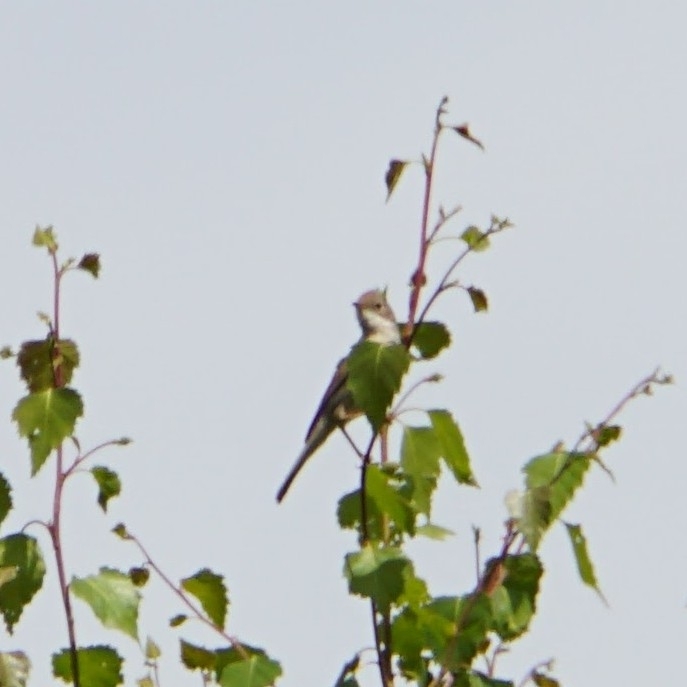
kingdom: Animalia
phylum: Chordata
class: Aves
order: Passeriformes
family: Sylviidae
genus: Sylvia
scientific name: Sylvia communis
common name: Common whitethroat
